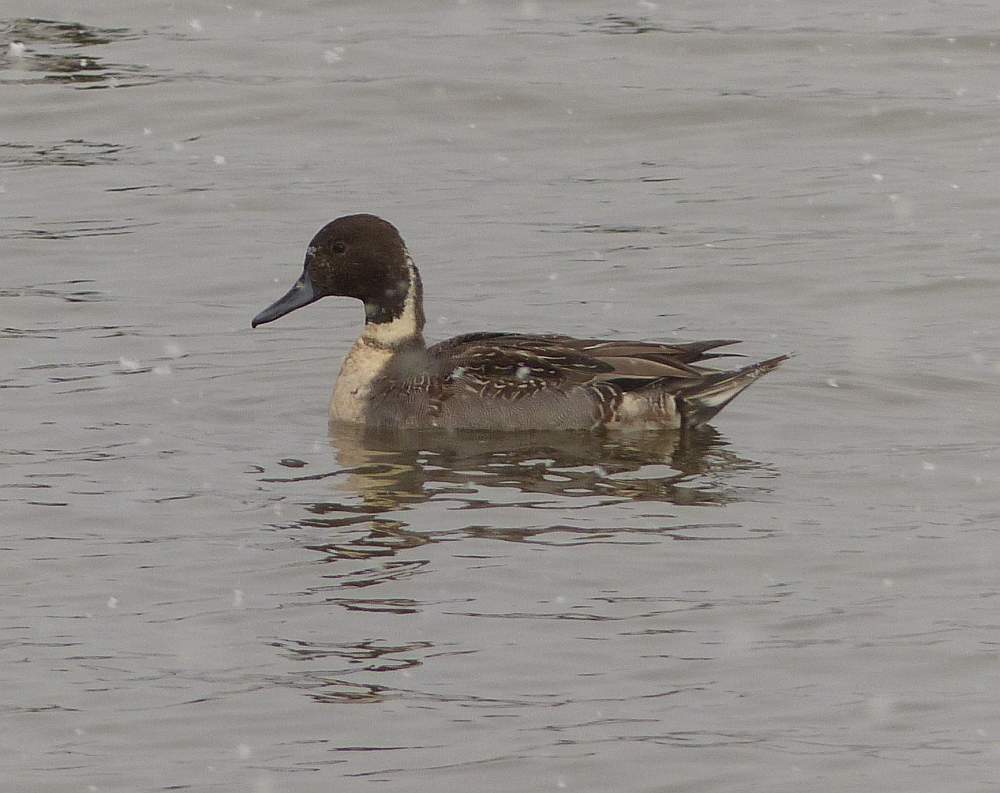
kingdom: Animalia
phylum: Chordata
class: Aves
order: Anseriformes
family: Anatidae
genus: Anas
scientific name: Anas acuta
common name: Northern pintail
